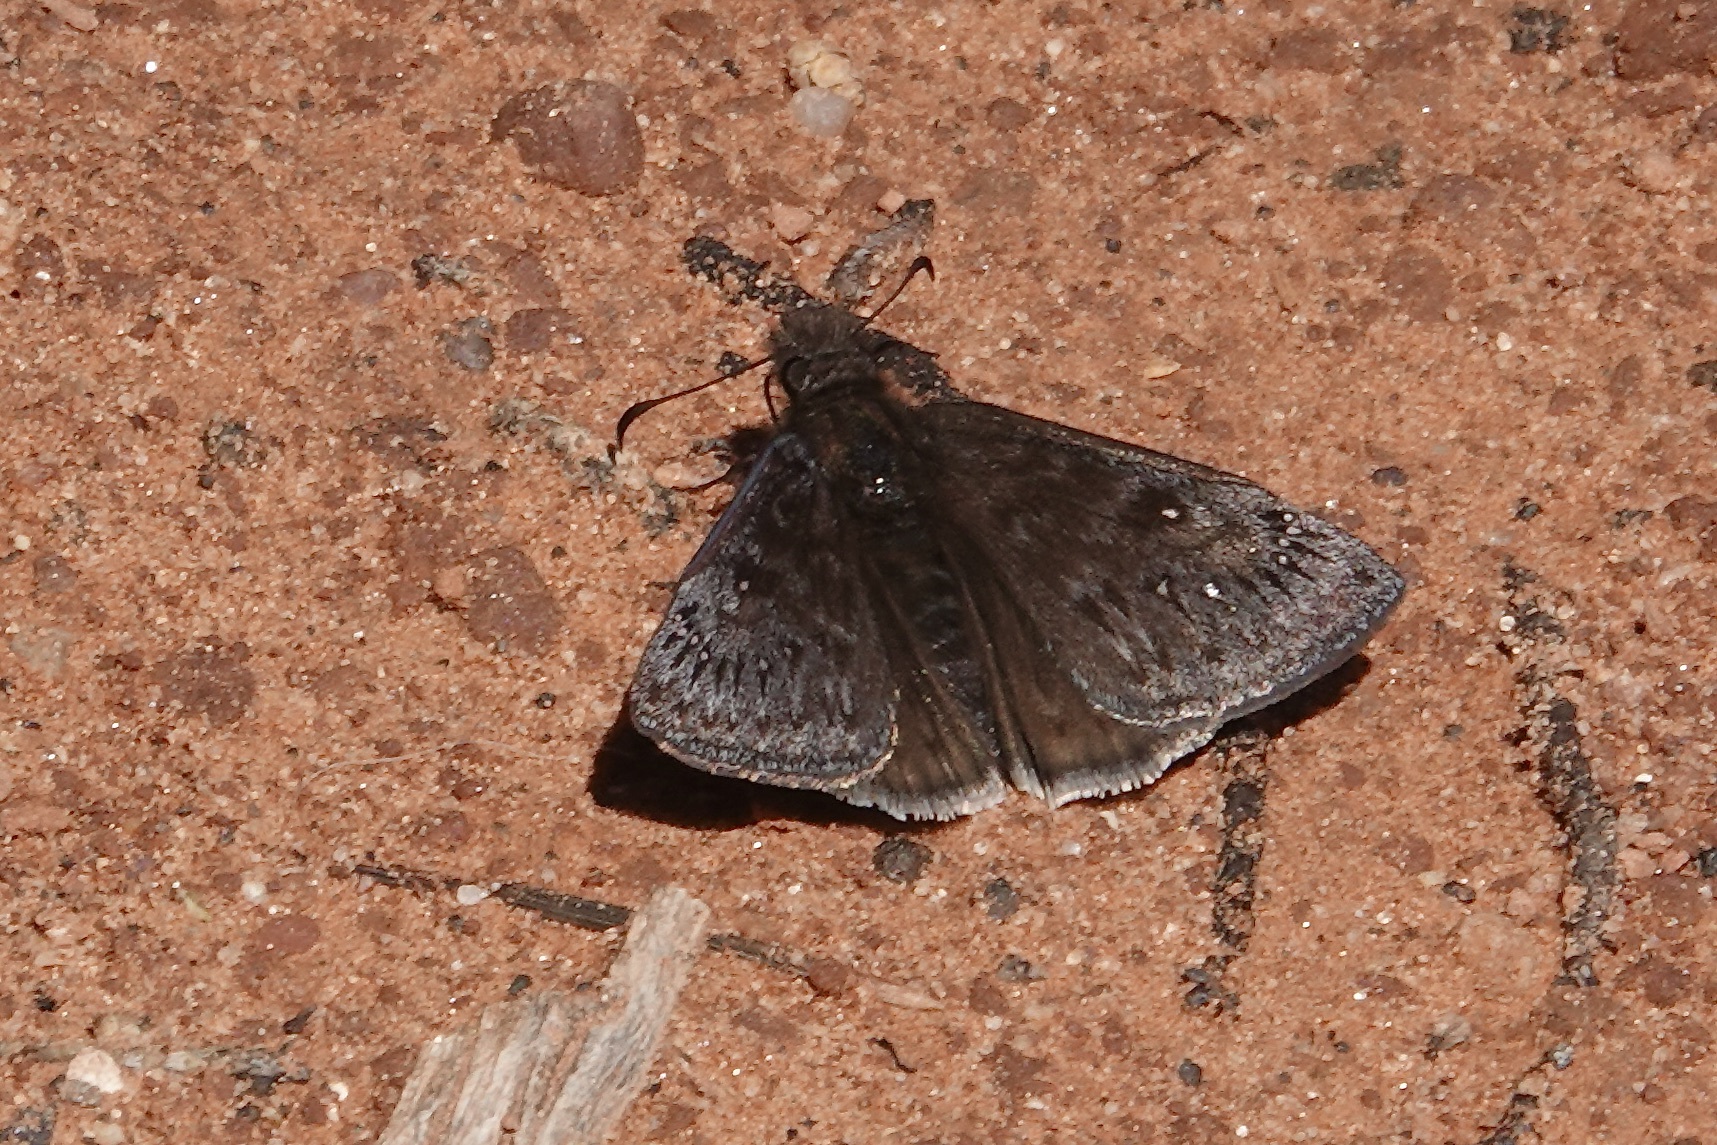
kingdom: Animalia
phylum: Arthropoda
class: Insecta
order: Lepidoptera
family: Hesperiidae
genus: Erynnis
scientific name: Erynnis meridianus
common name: Meridian duskywing
